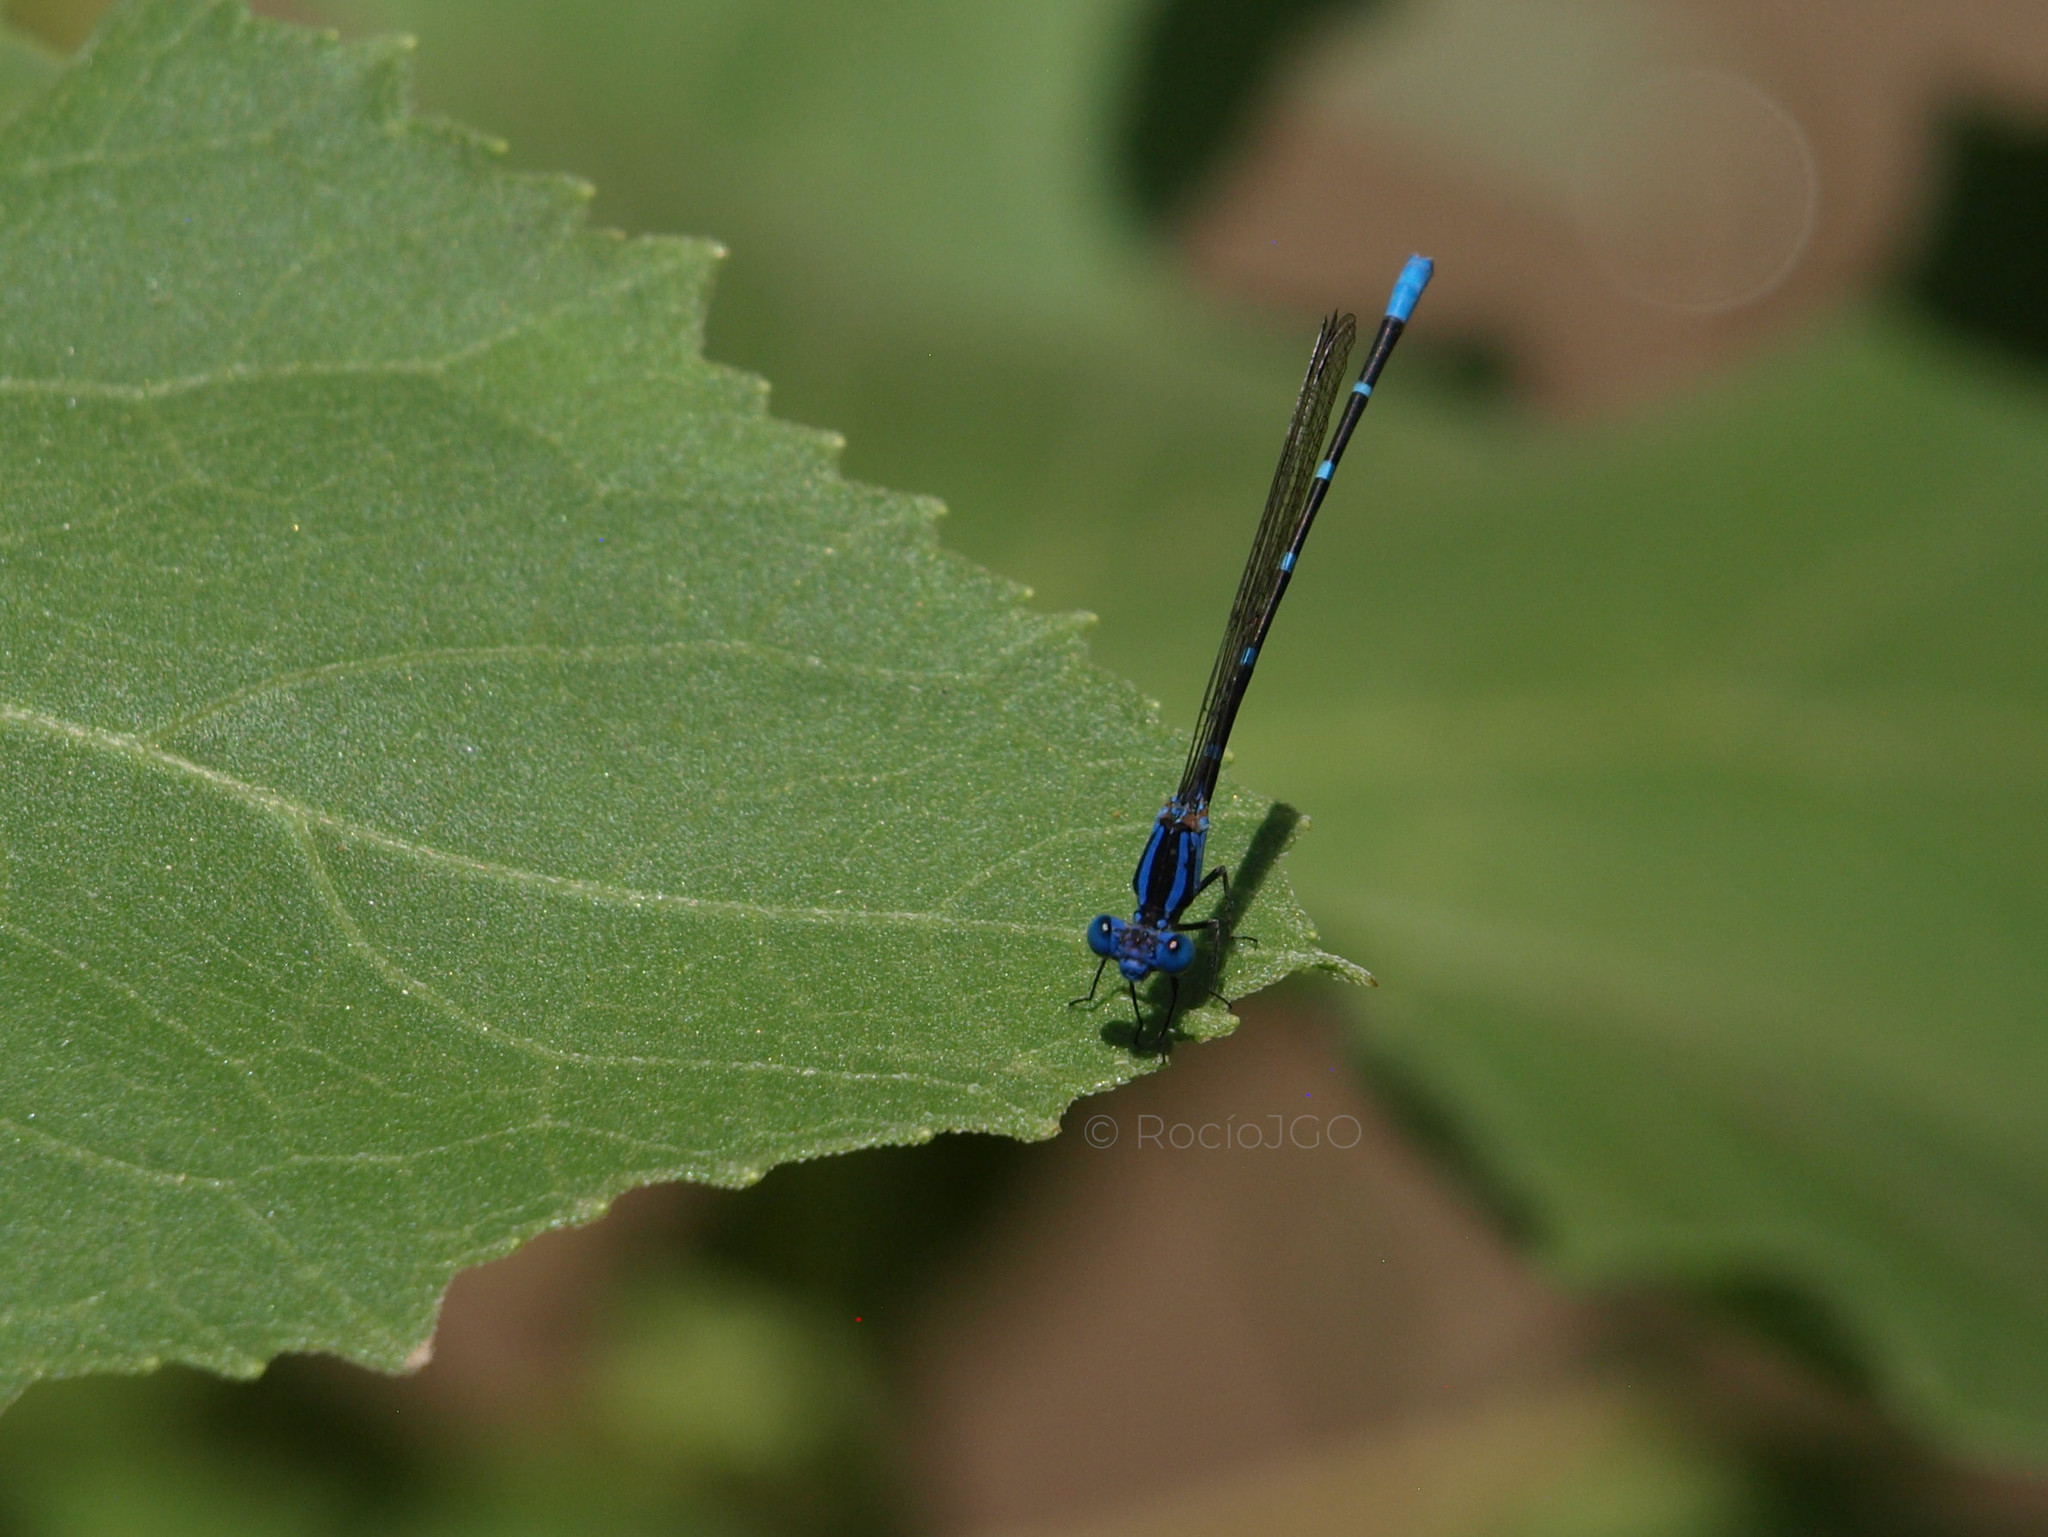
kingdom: Animalia
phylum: Arthropoda
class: Insecta
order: Odonata
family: Coenagrionidae
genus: Argia
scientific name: Argia sedula
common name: Blue-ringed dancer
